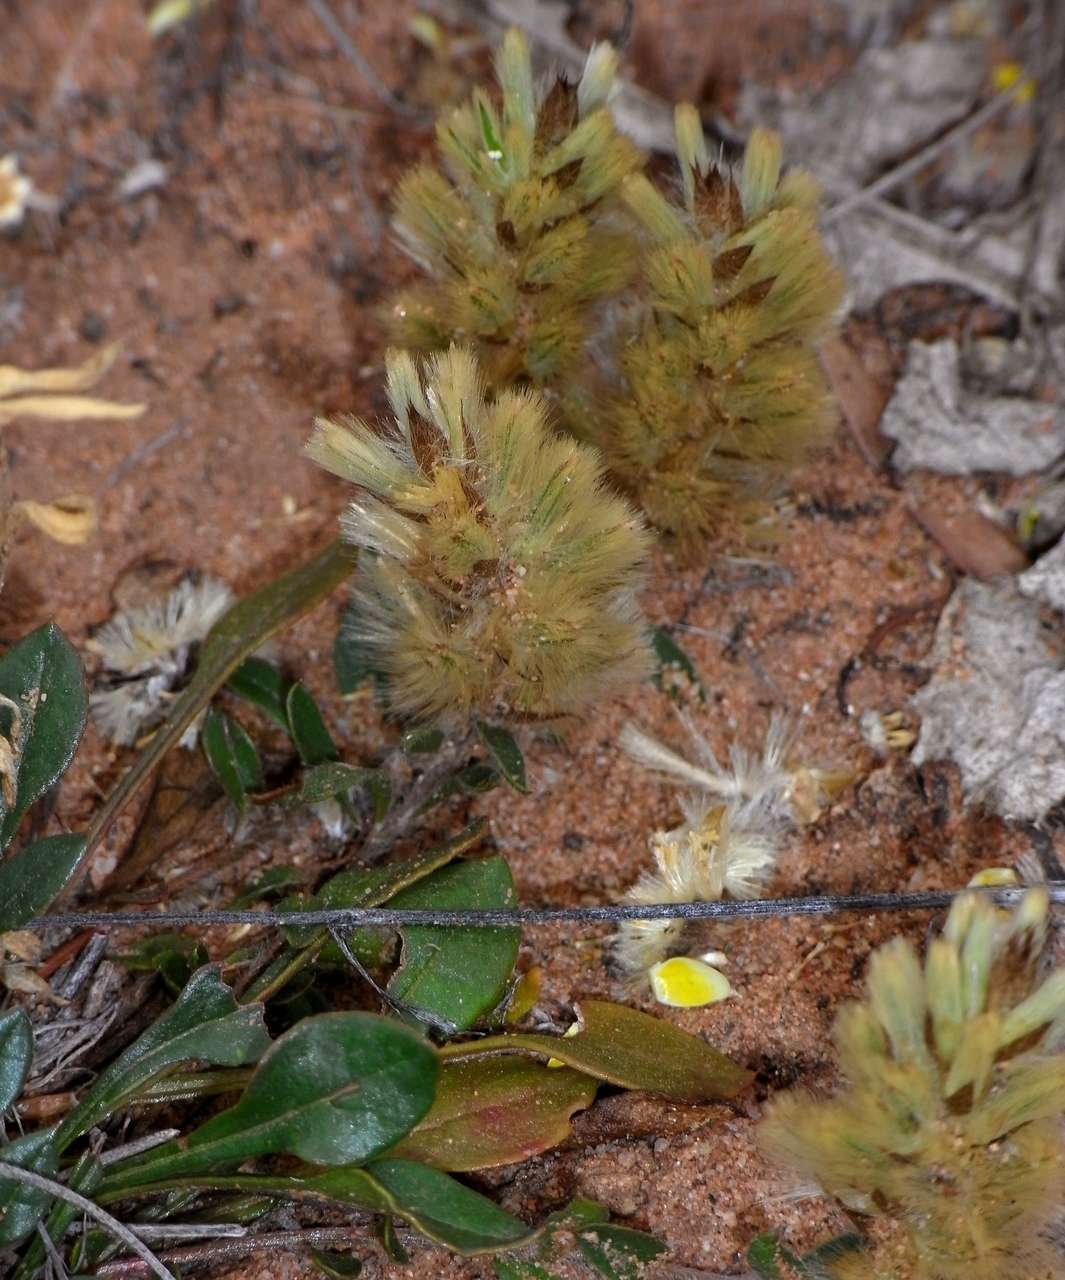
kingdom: Plantae
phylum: Tracheophyta
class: Magnoliopsida
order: Caryophyllales
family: Amaranthaceae
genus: Ptilotus
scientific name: Ptilotus spathulatus
